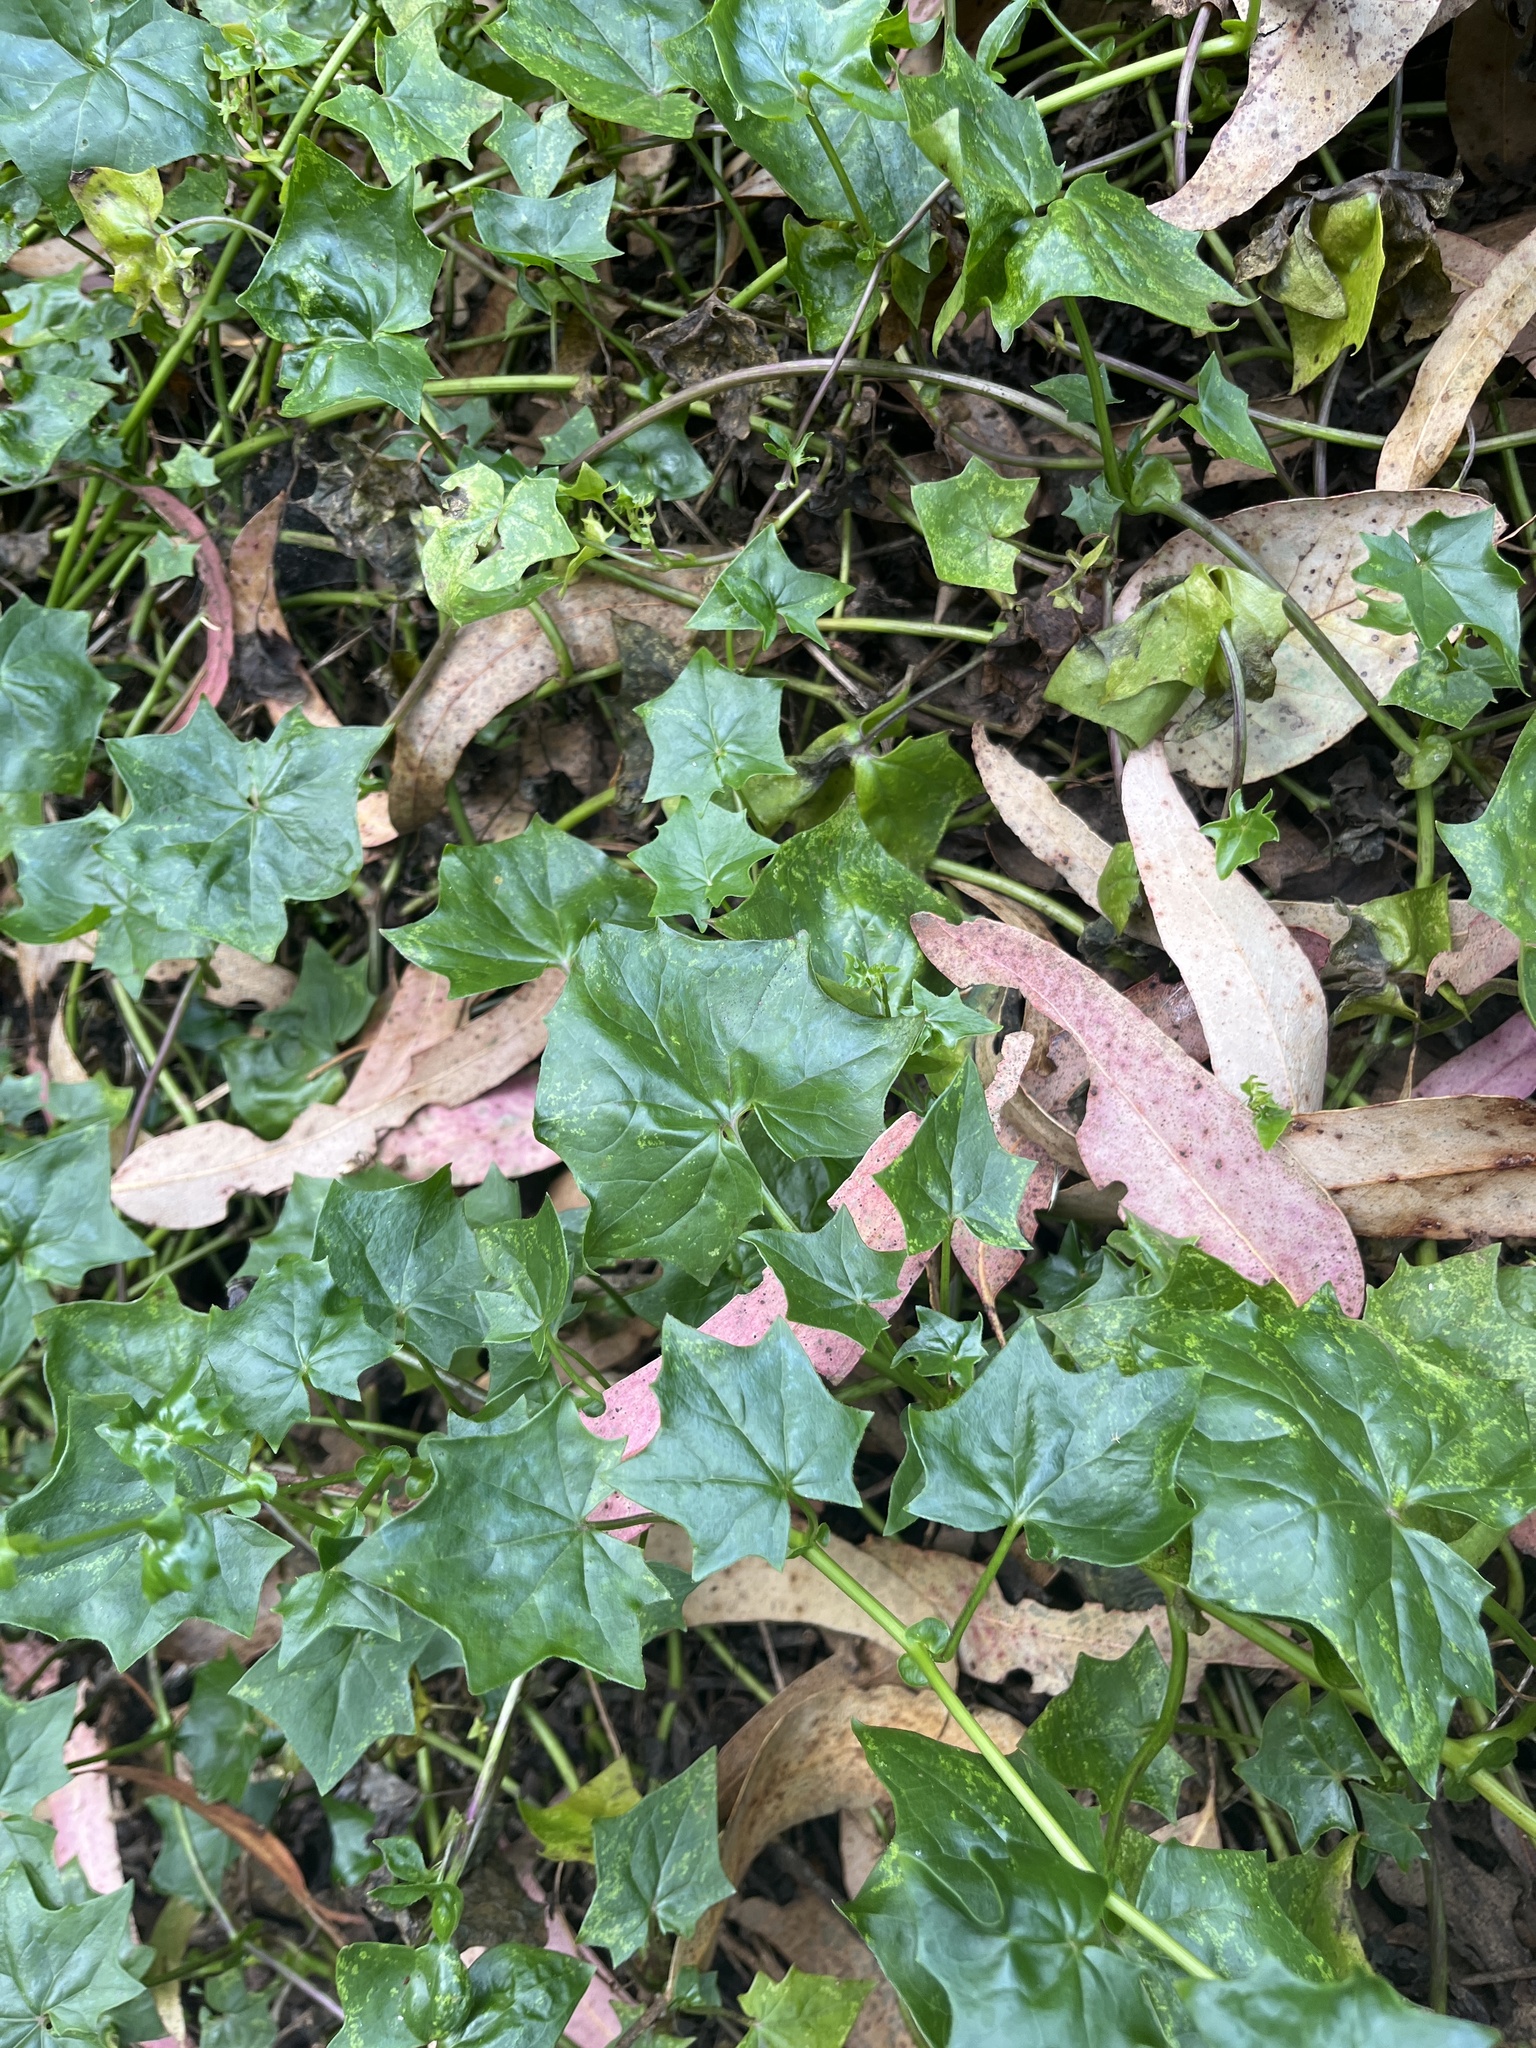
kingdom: Plantae
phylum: Tracheophyta
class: Magnoliopsida
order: Asterales
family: Asteraceae
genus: Delairea
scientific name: Delairea odorata
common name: Cape-ivy
